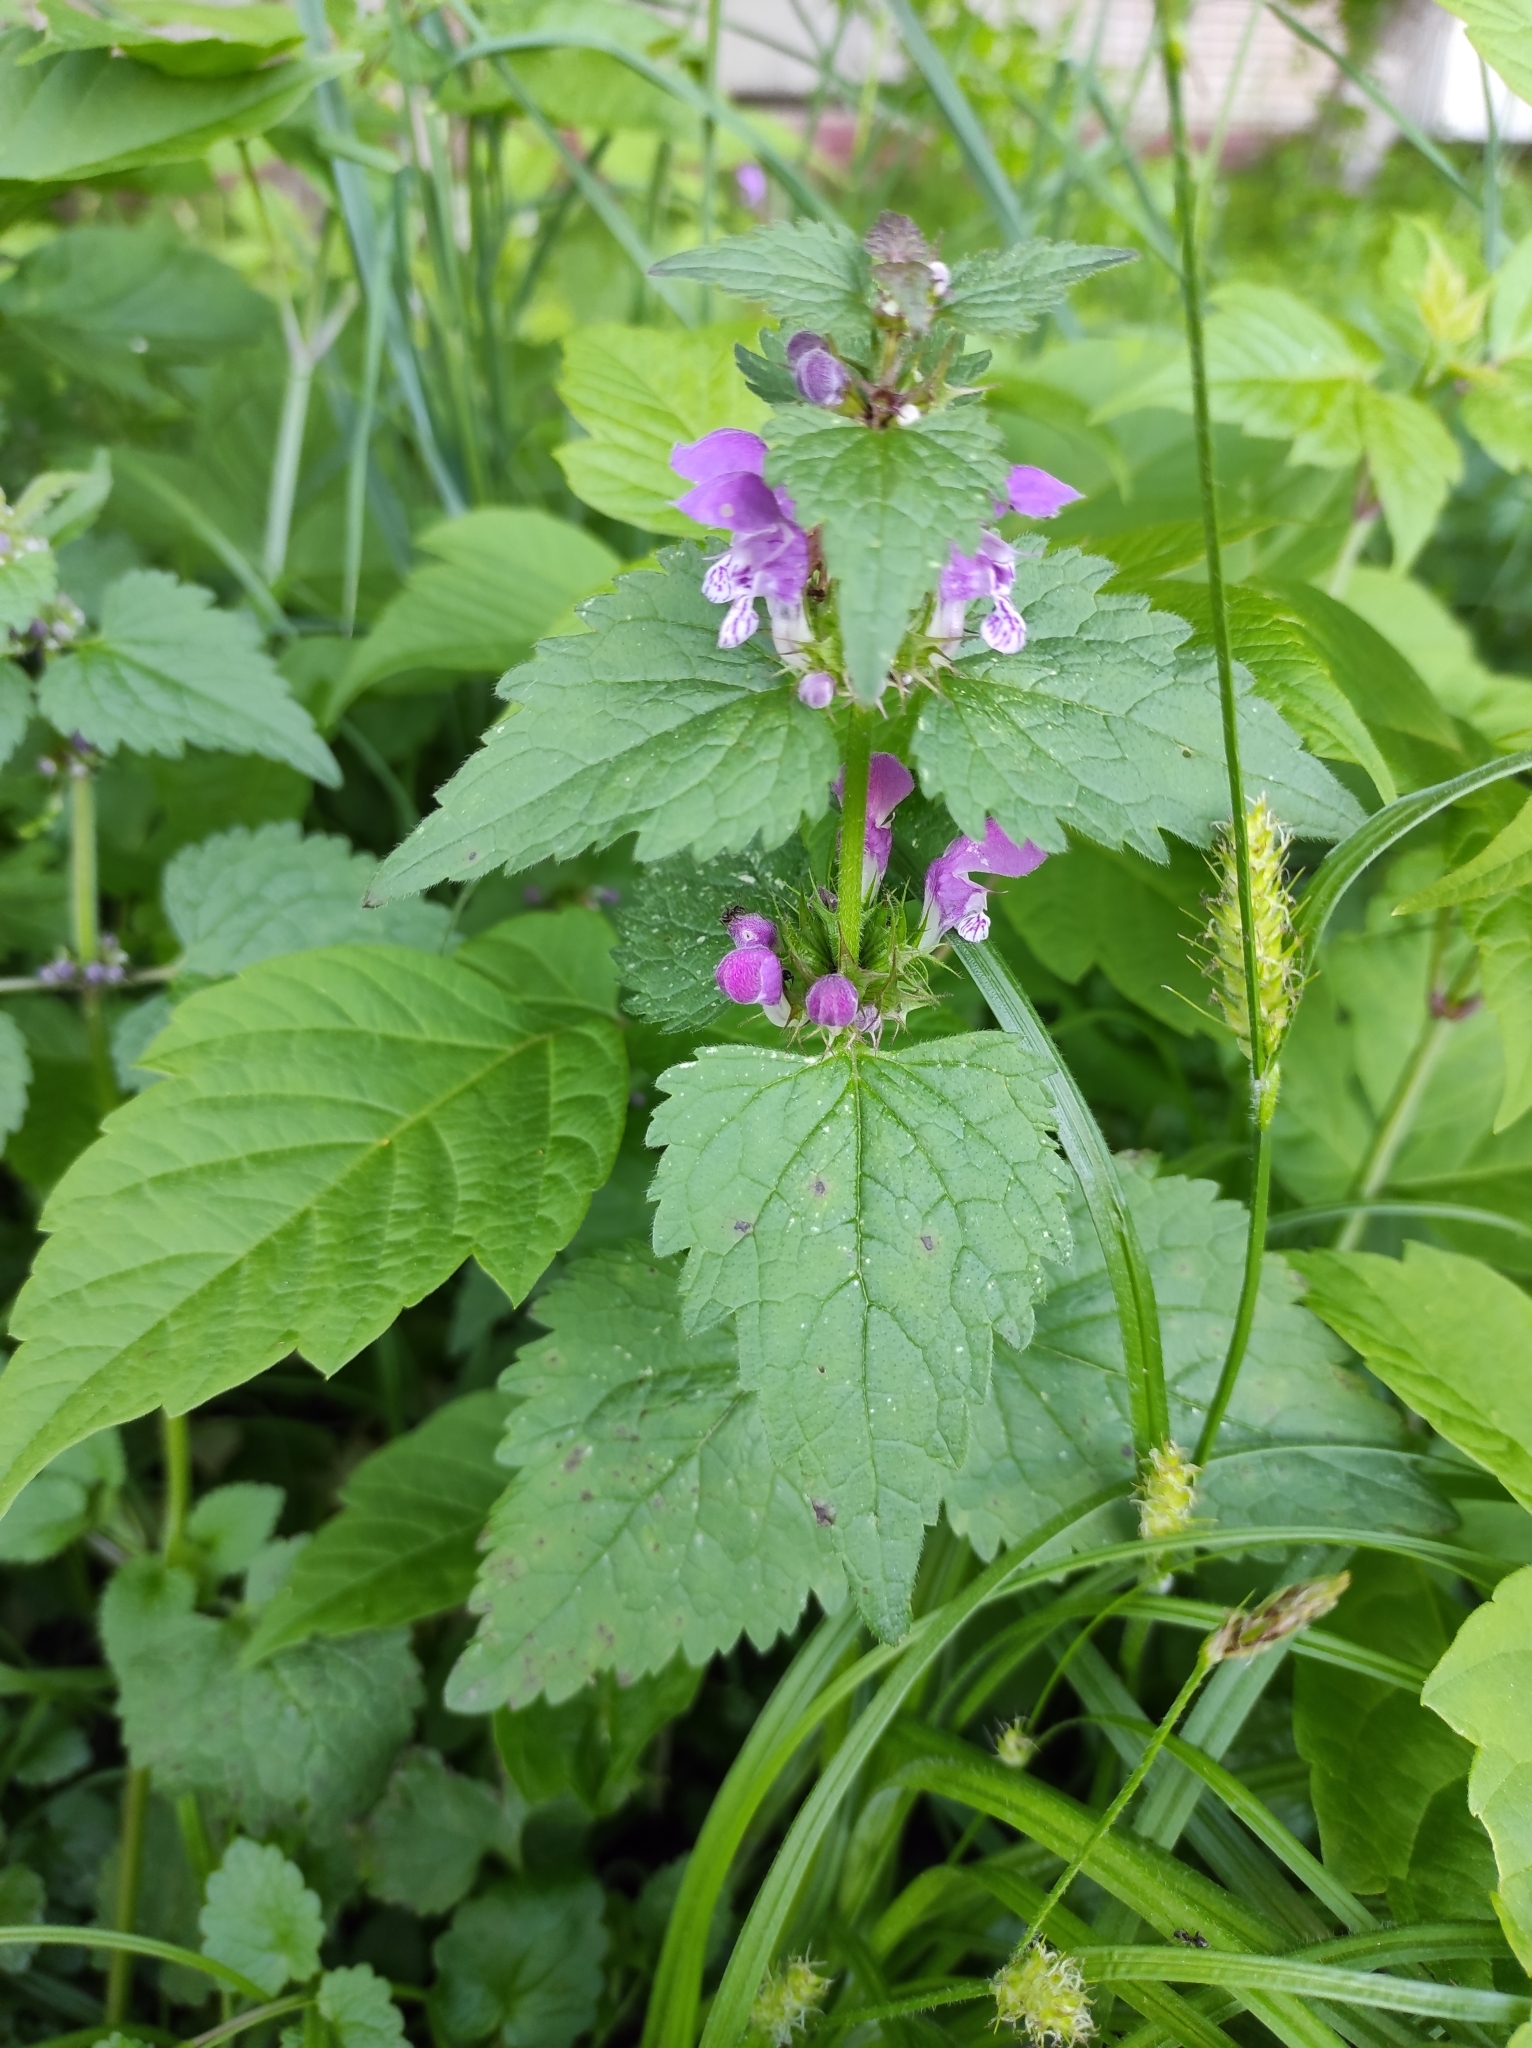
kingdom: Plantae
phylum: Tracheophyta
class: Magnoliopsida
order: Lamiales
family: Lamiaceae
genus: Lamium
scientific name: Lamium maculatum
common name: Spotted dead-nettle
